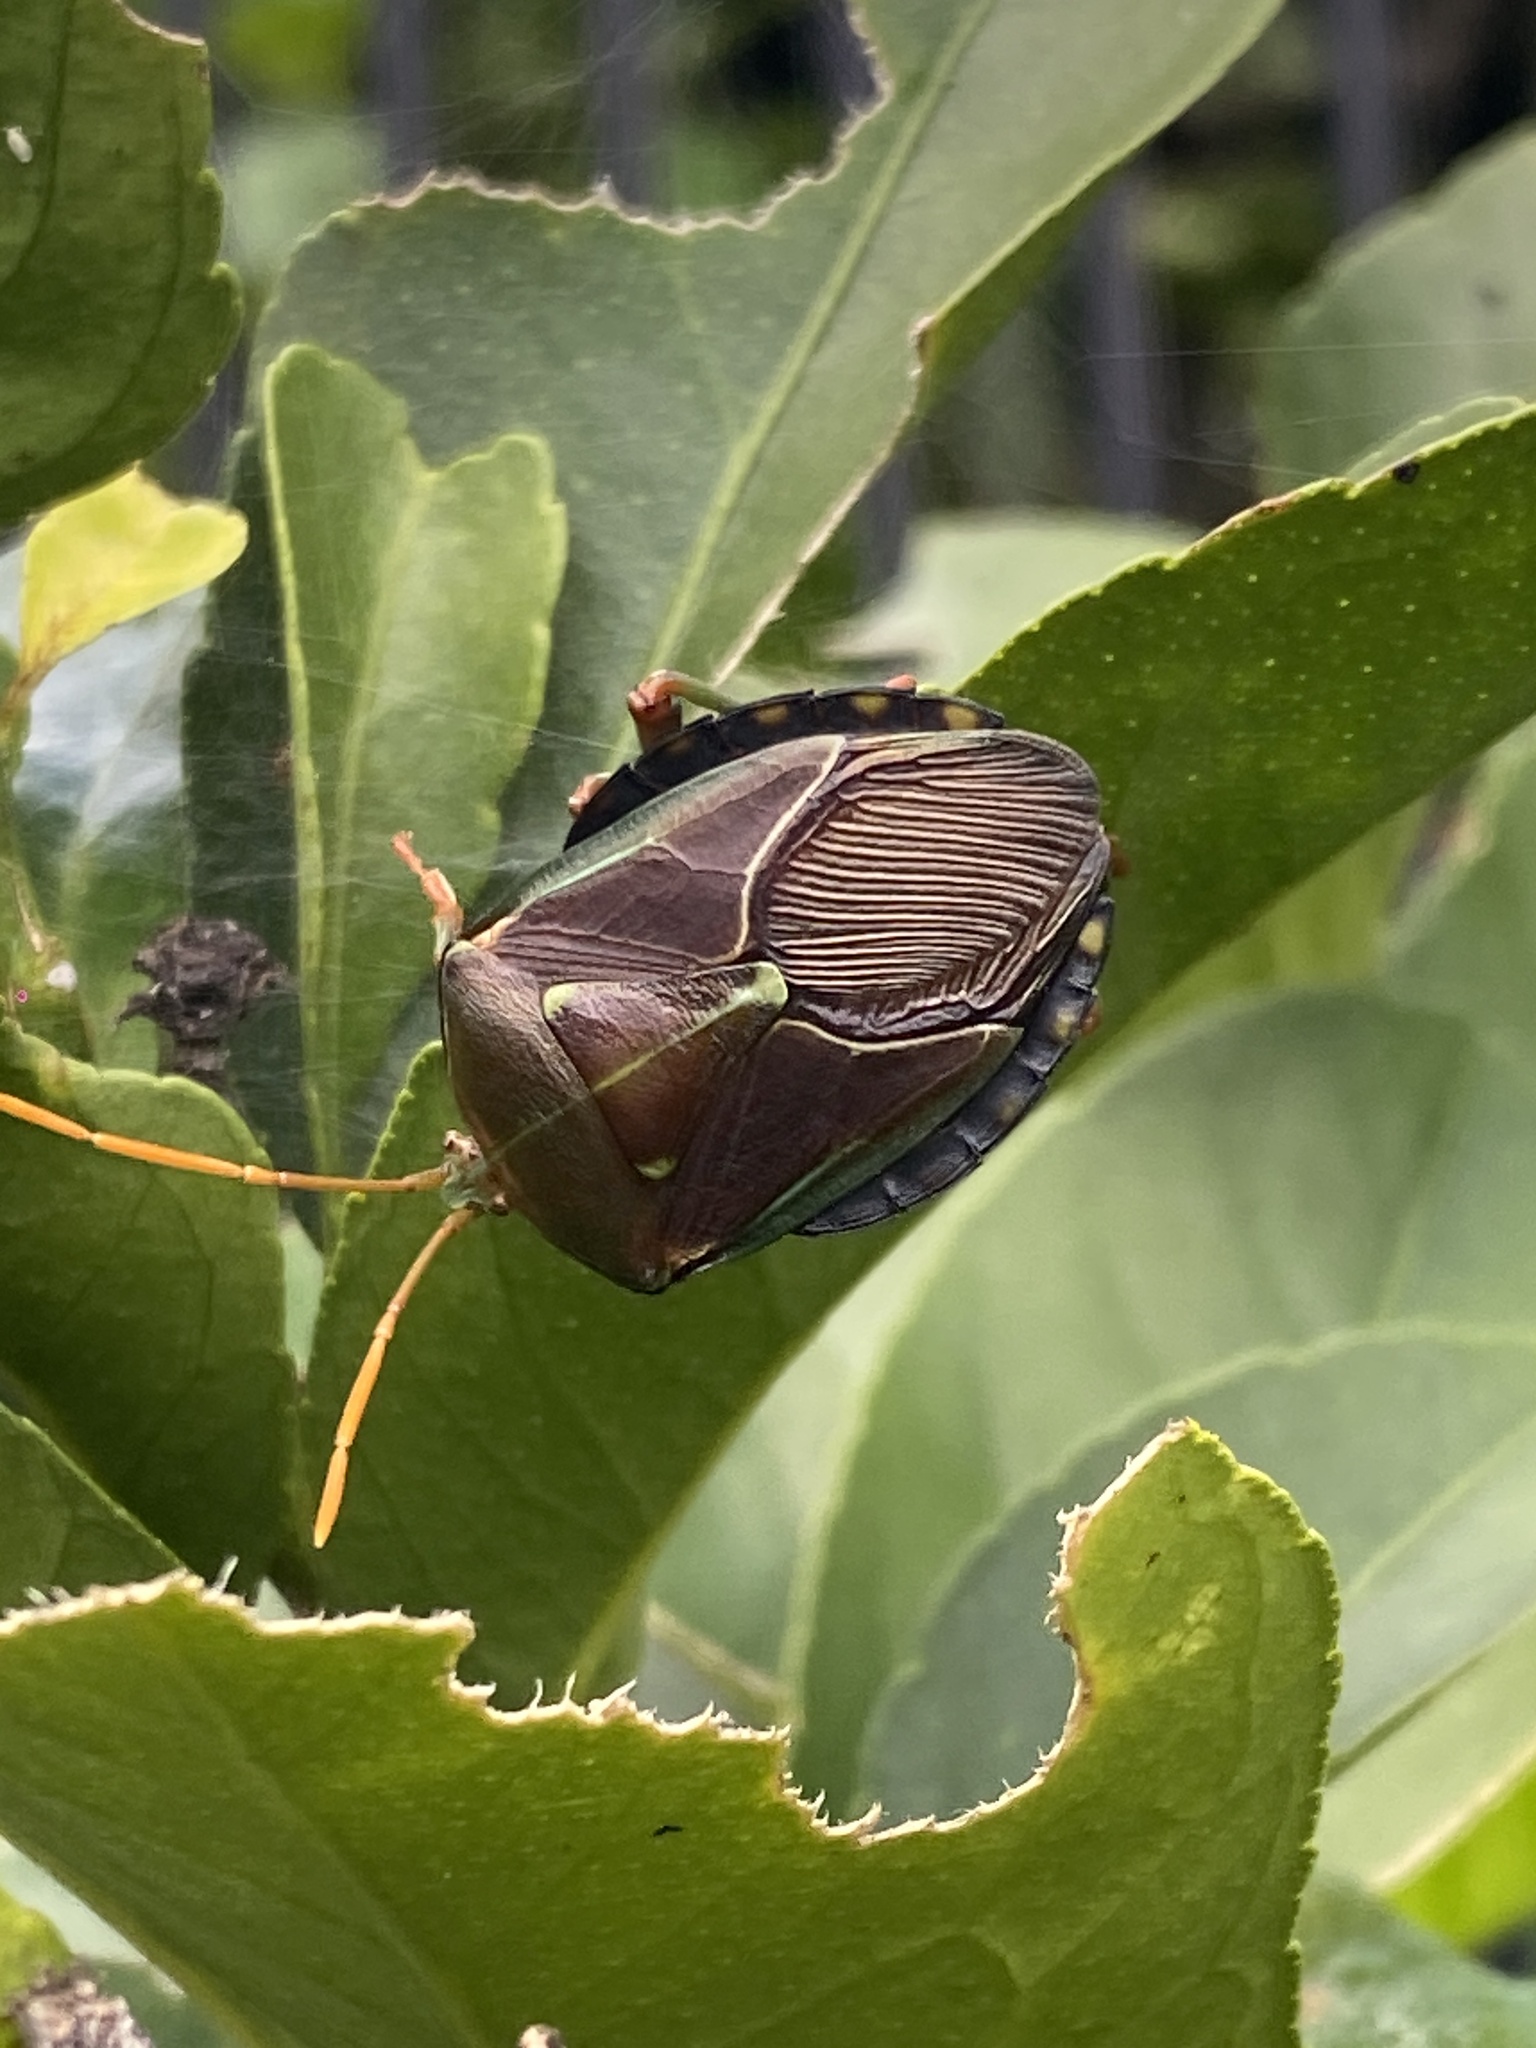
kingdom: Animalia
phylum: Arthropoda
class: Insecta
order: Hemiptera
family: Tessaratomidae
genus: Musgraveia
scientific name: Musgraveia sulciventris
